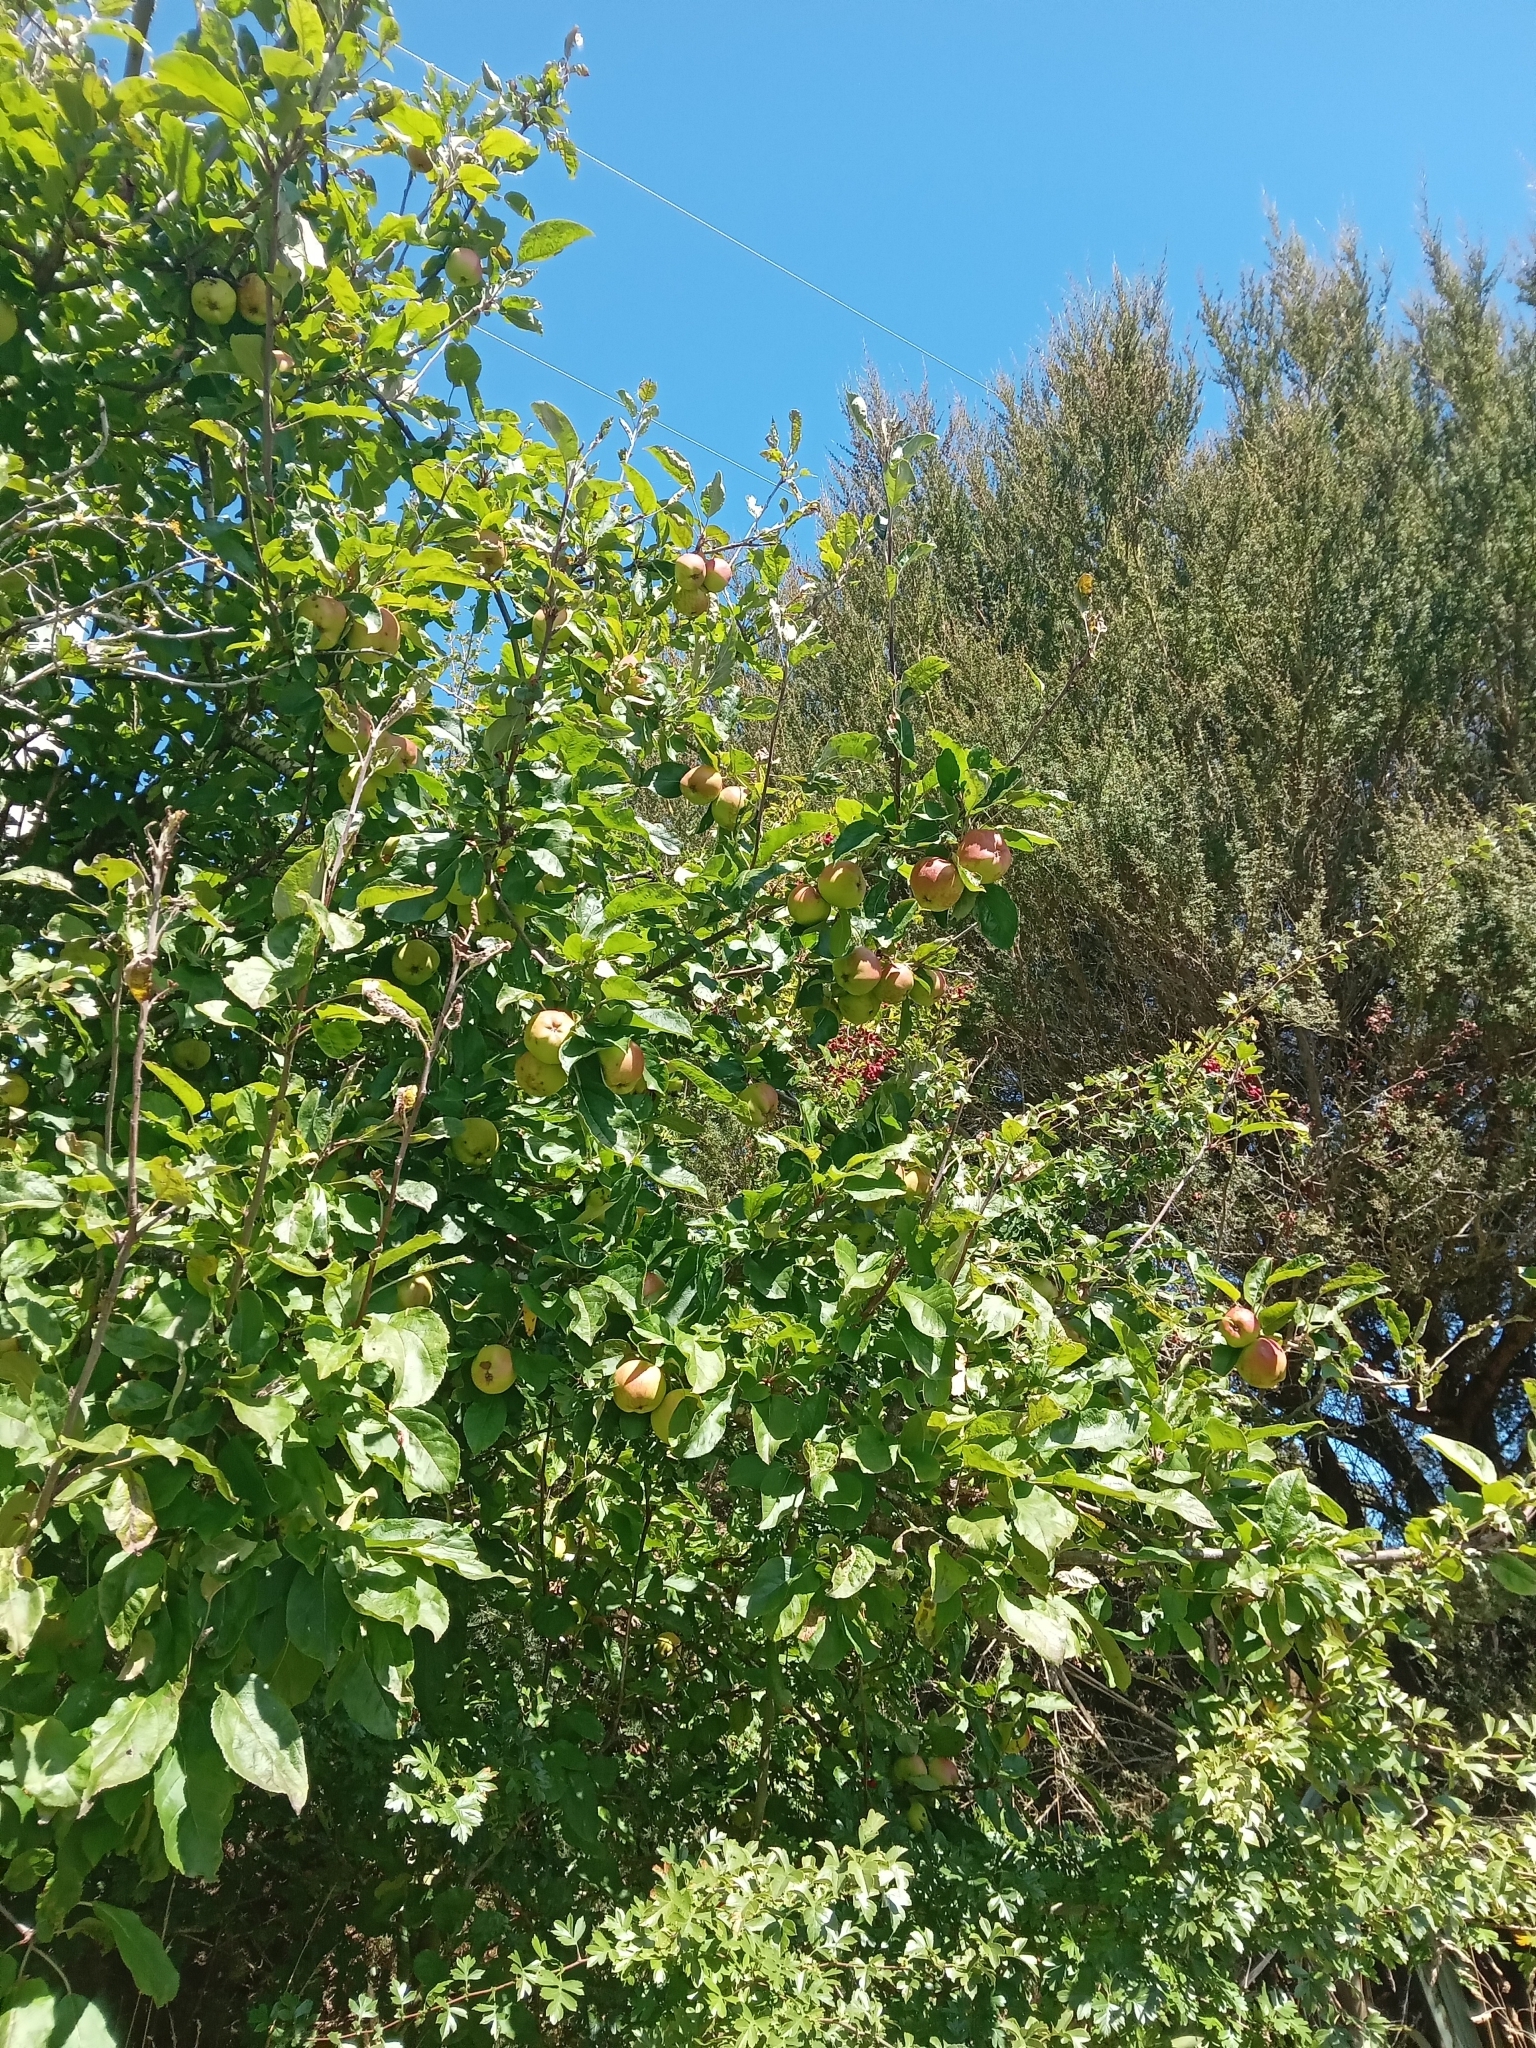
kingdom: Plantae
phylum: Tracheophyta
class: Magnoliopsida
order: Rosales
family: Rosaceae
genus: Malus
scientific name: Malus domestica
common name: Apple
